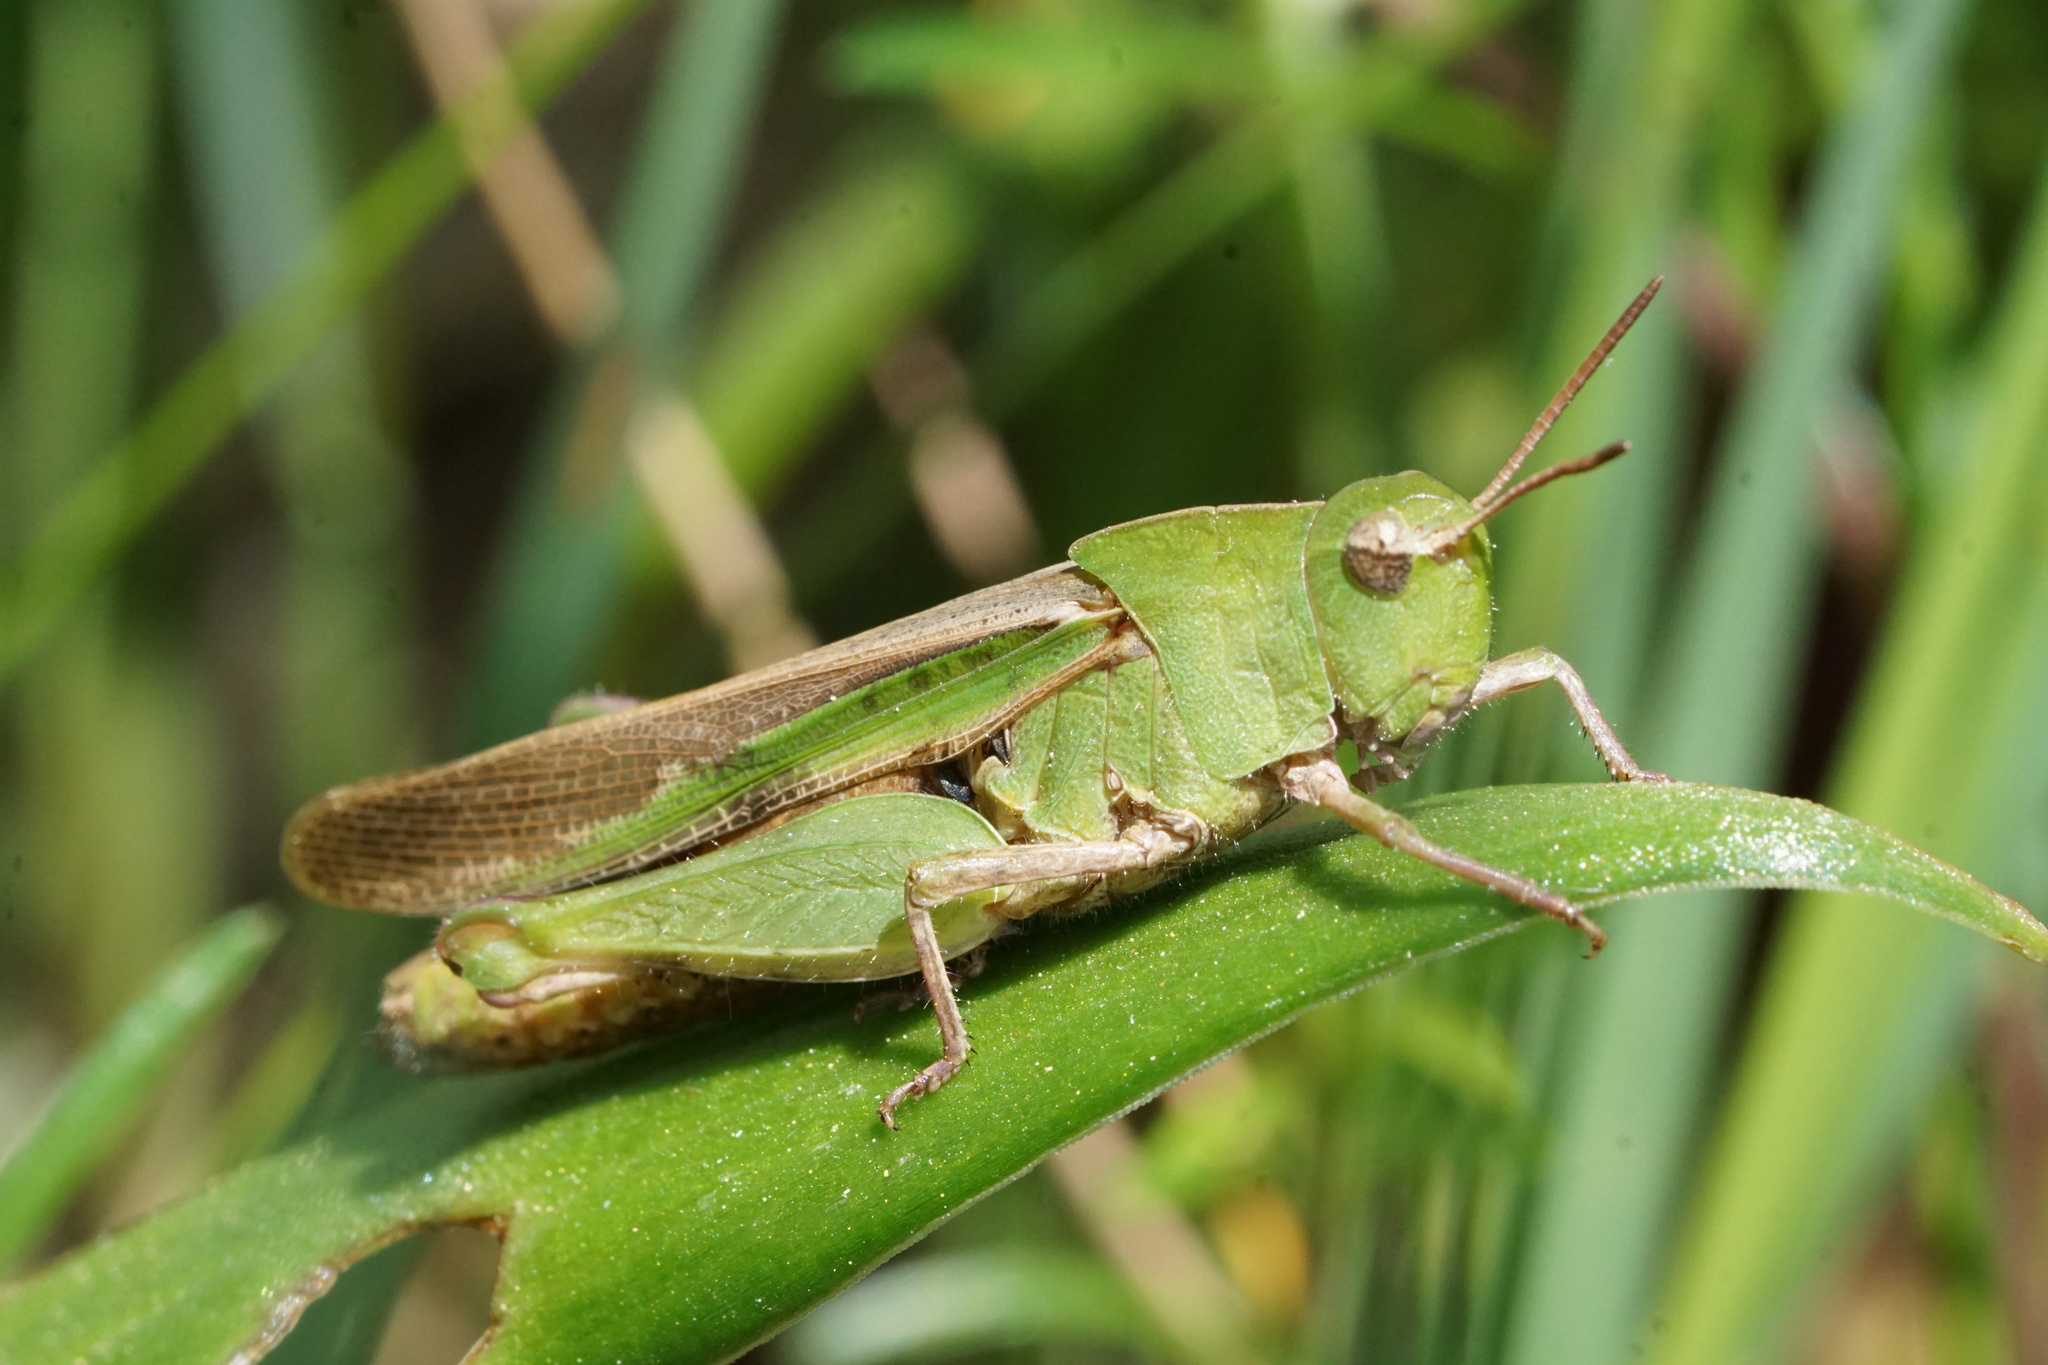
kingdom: Animalia
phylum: Arthropoda
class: Insecta
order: Orthoptera
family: Acrididae
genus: Chortophaga
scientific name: Chortophaga viridifasciata
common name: Green-striped grasshopper
